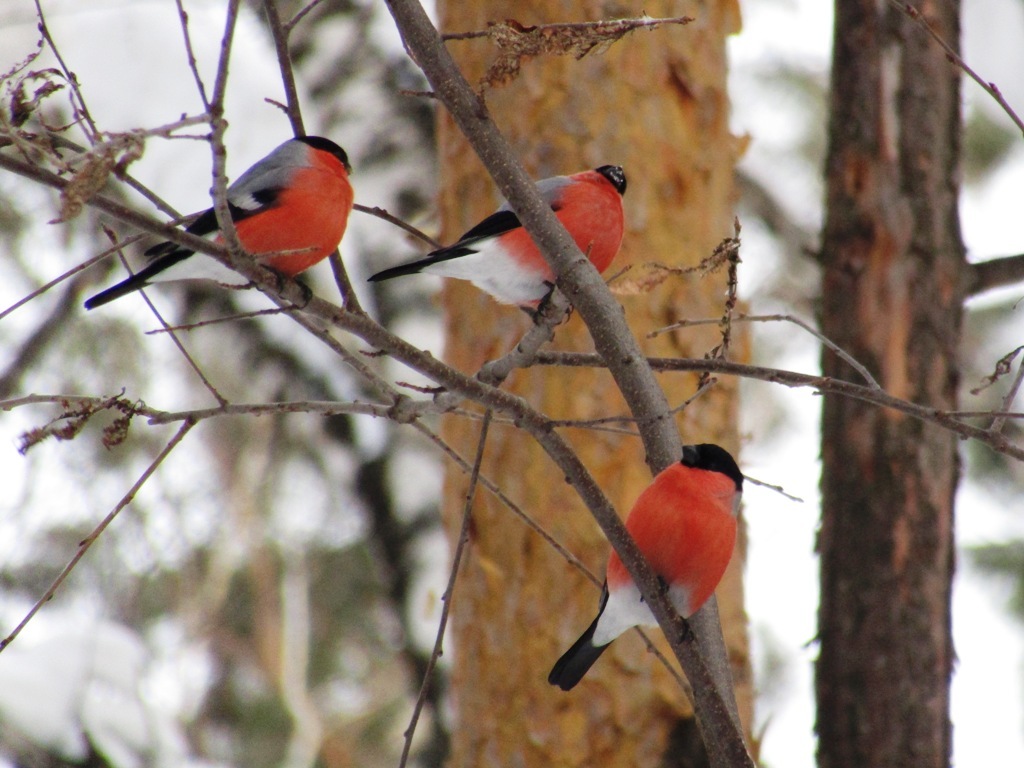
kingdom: Animalia
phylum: Chordata
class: Aves
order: Passeriformes
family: Fringillidae
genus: Pyrrhula
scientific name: Pyrrhula pyrrhula
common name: Eurasian bullfinch
